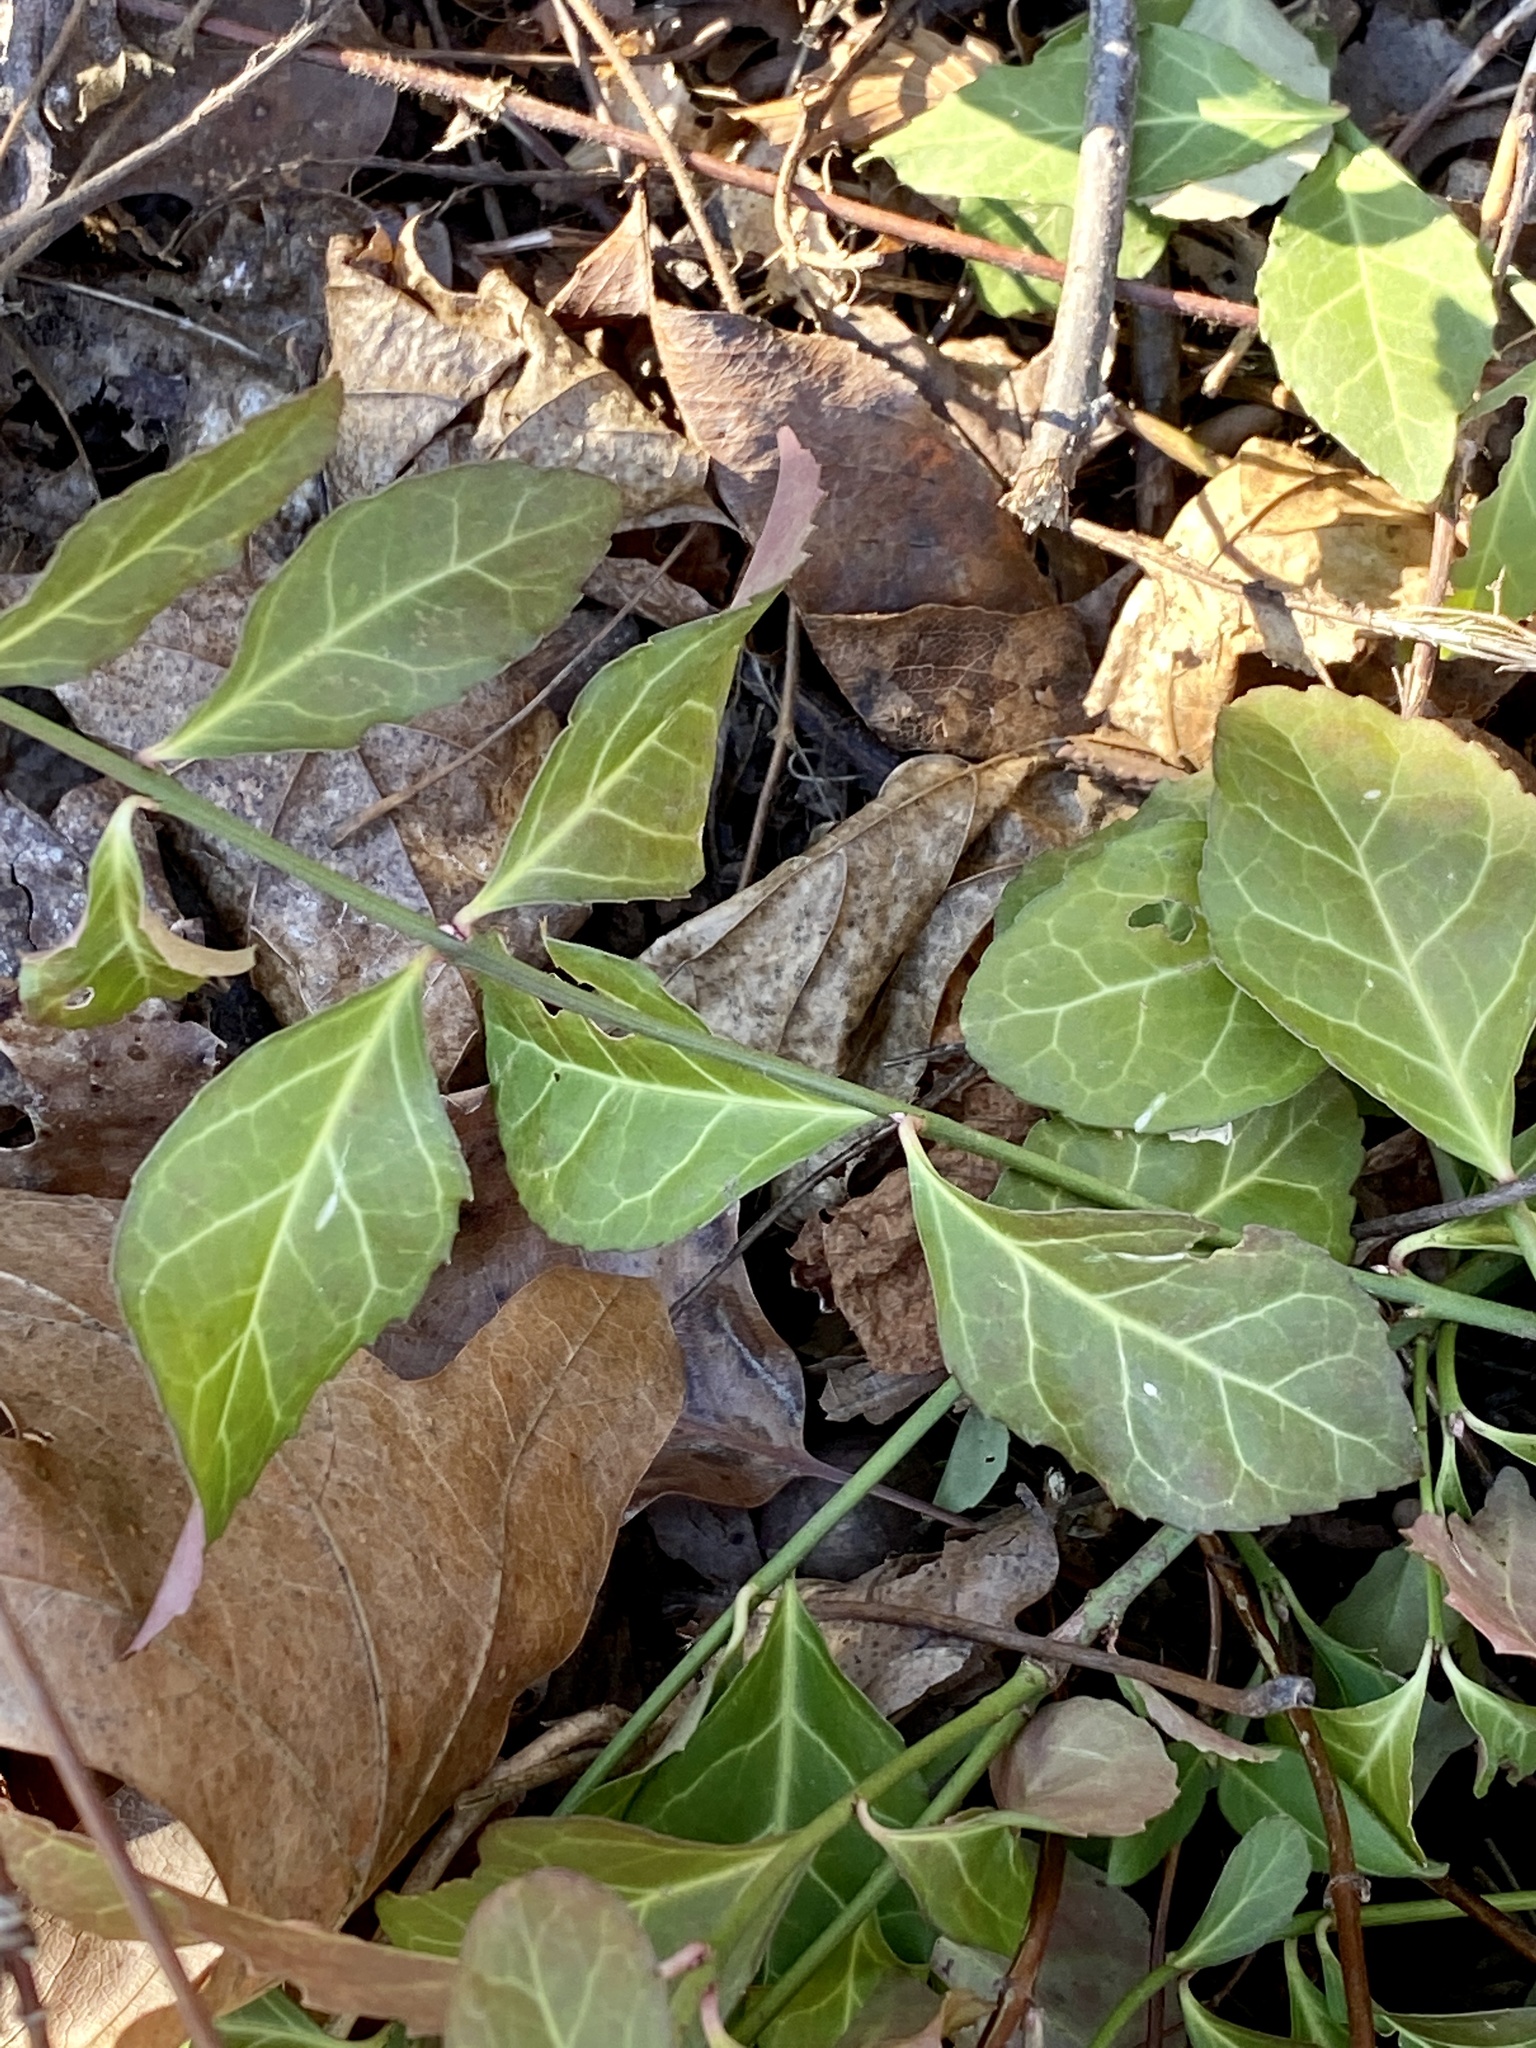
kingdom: Plantae
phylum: Tracheophyta
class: Magnoliopsida
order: Celastrales
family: Celastraceae
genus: Euonymus
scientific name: Euonymus fortunei
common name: Climbing euonymus
